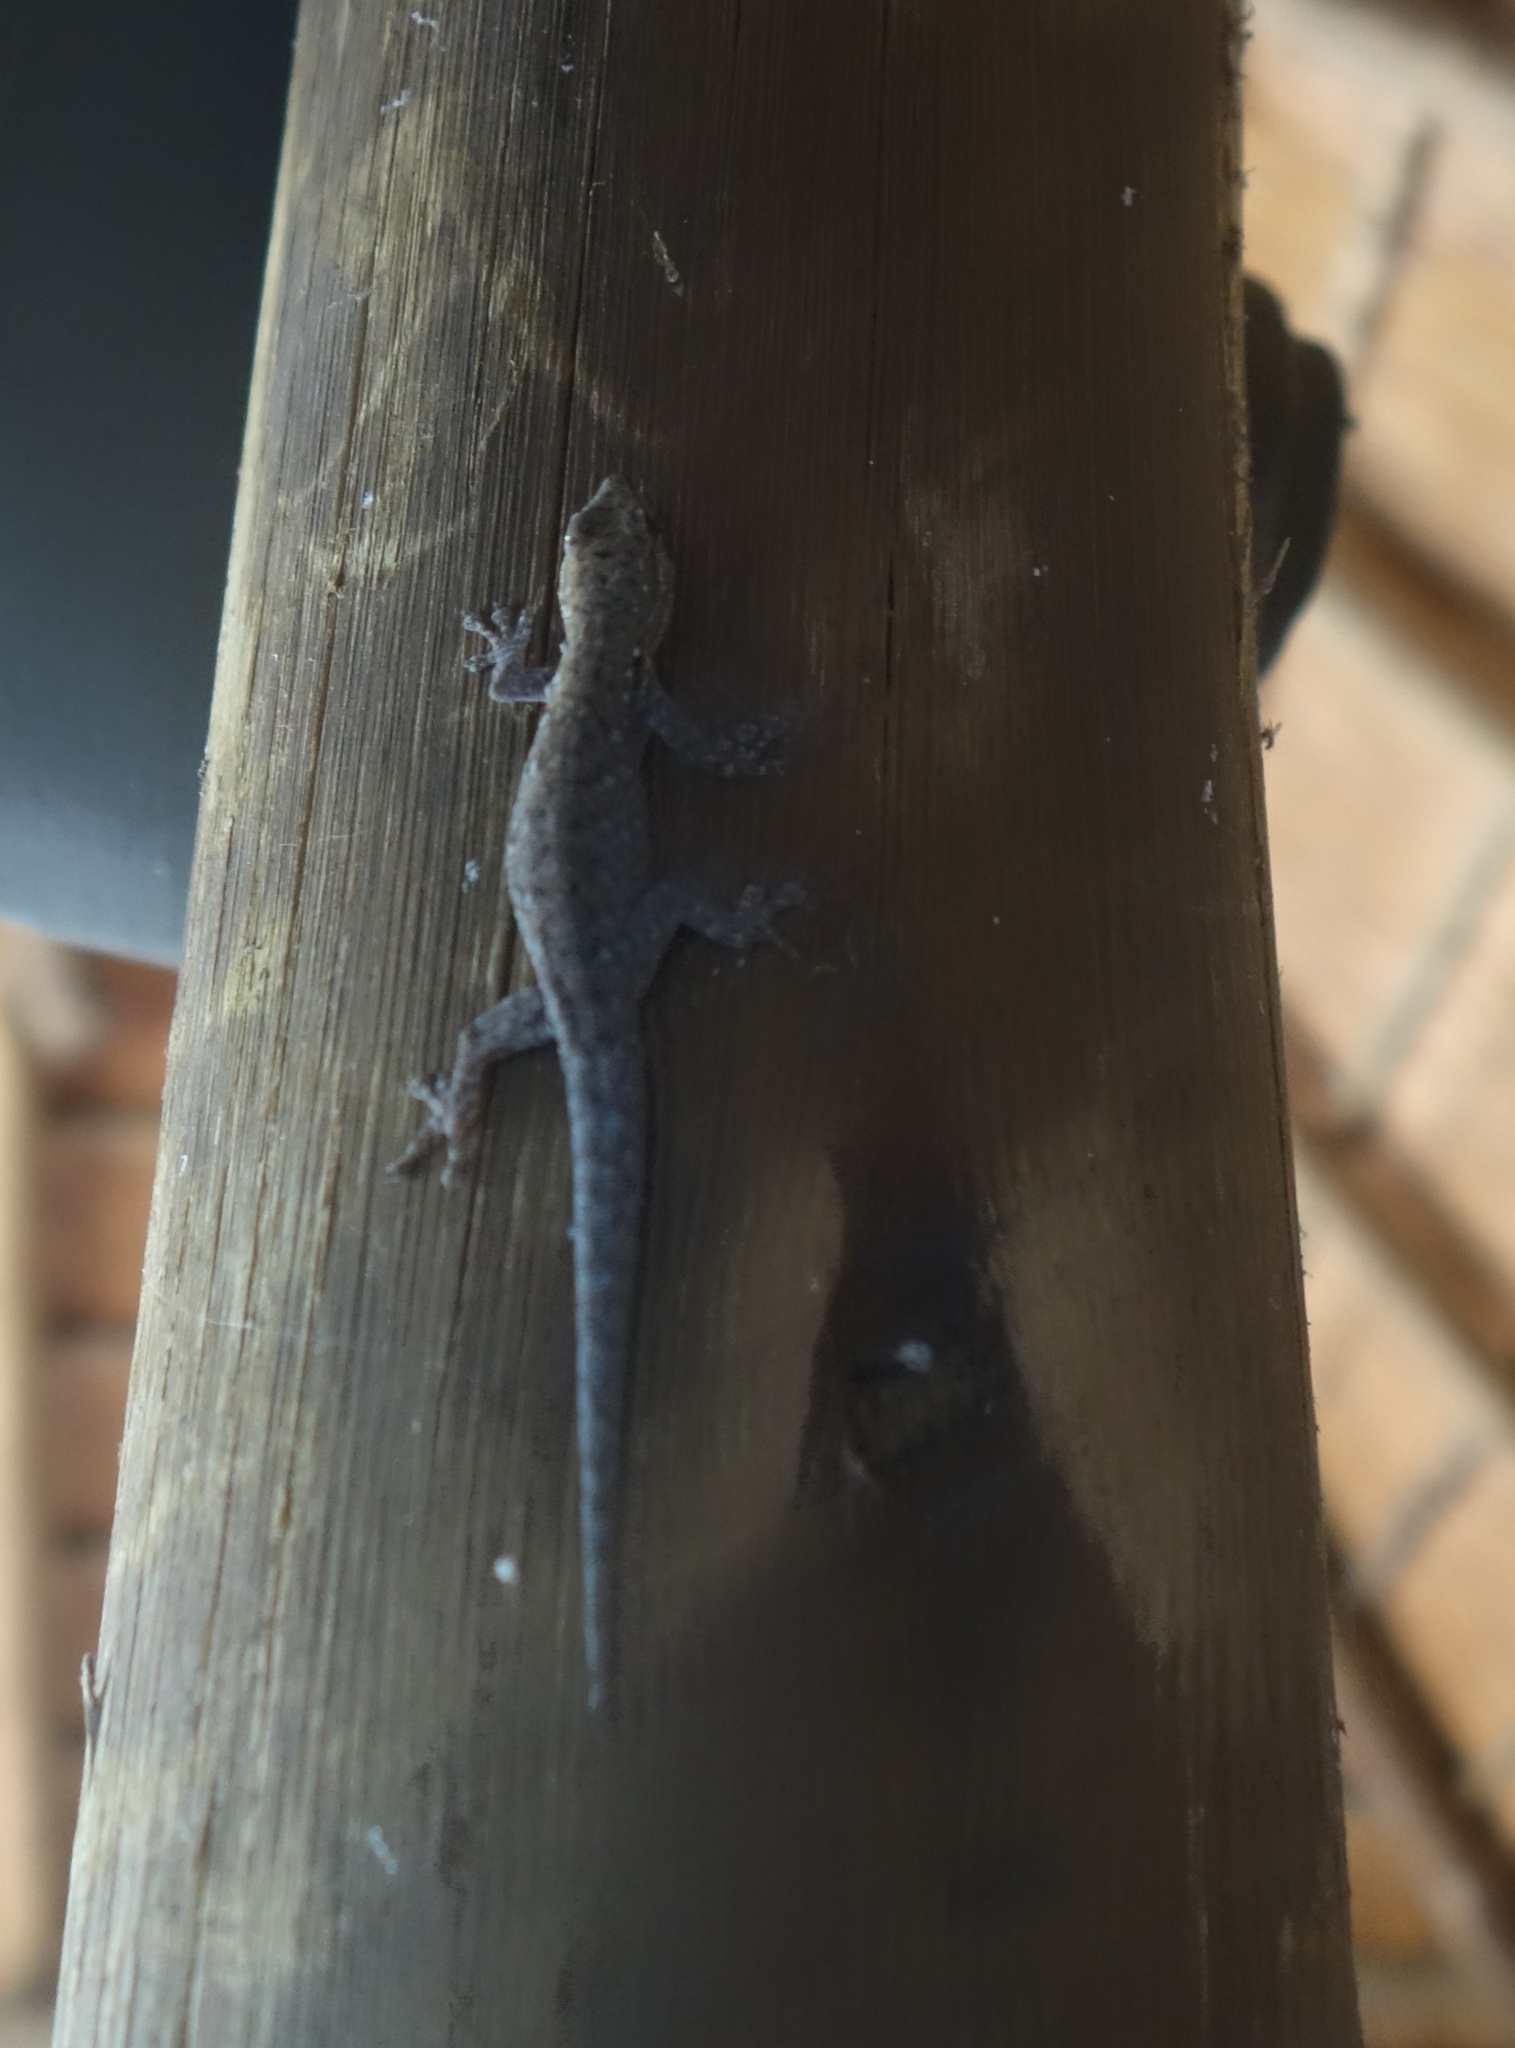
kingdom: Animalia
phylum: Chordata
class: Squamata
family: Gekkonidae
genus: Lygodactylus
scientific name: Lygodactylus chobiensis
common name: Okavango dwarf gecko
